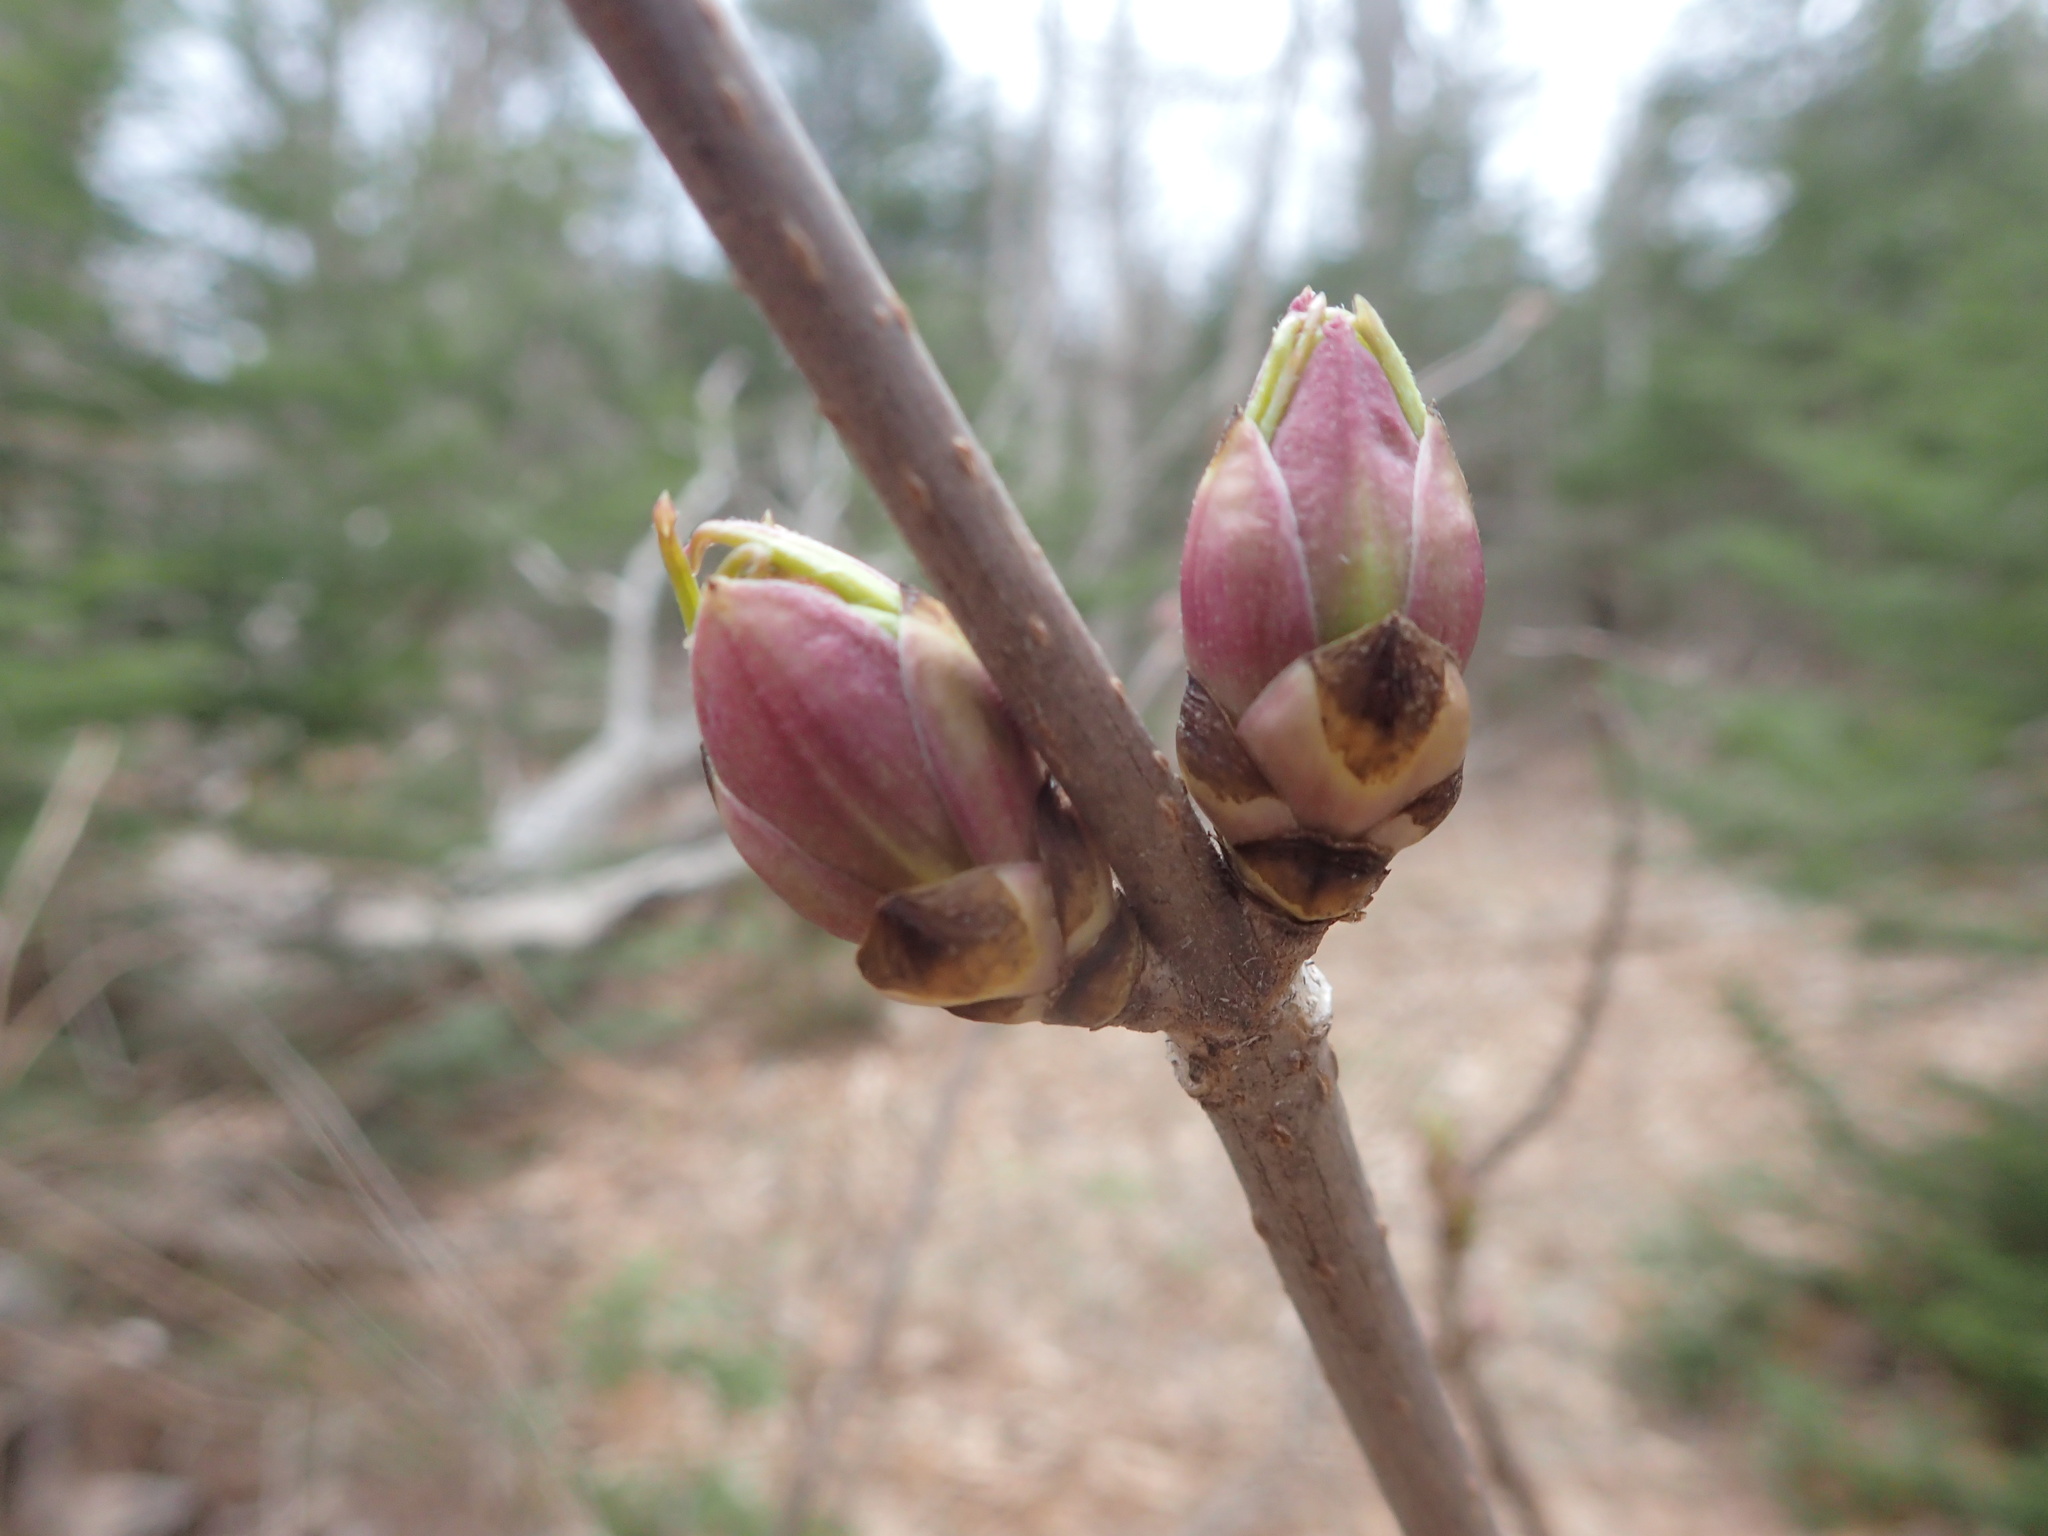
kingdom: Plantae
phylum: Tracheophyta
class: Magnoliopsida
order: Dipsacales
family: Viburnaceae
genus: Sambucus
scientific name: Sambucus racemosa
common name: Red-berried elder
